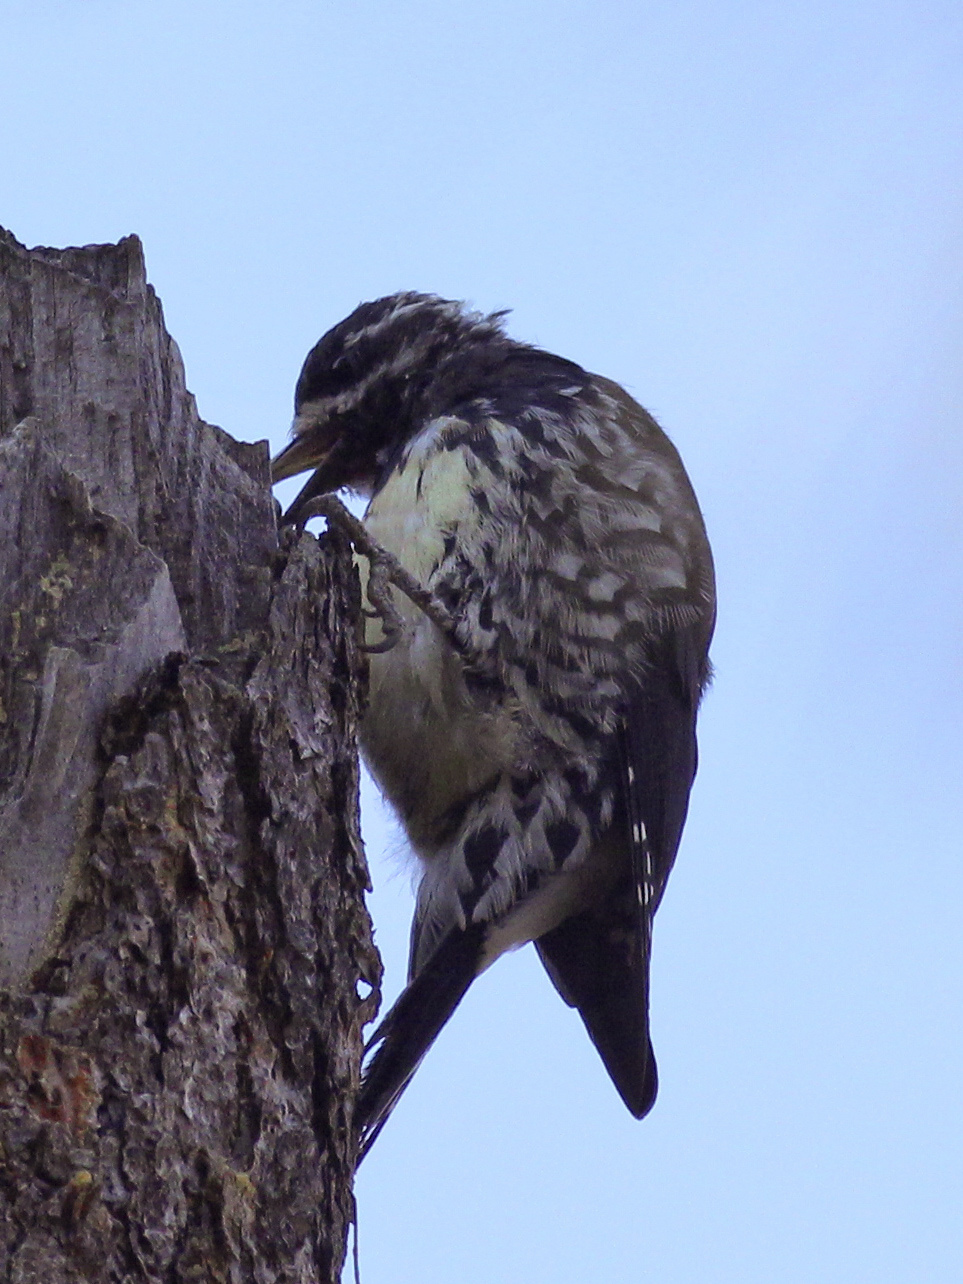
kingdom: Animalia
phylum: Chordata
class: Aves
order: Piciformes
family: Picidae
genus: Sphyrapicus
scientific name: Sphyrapicus thyroideus
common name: Williamson's sapsucker
